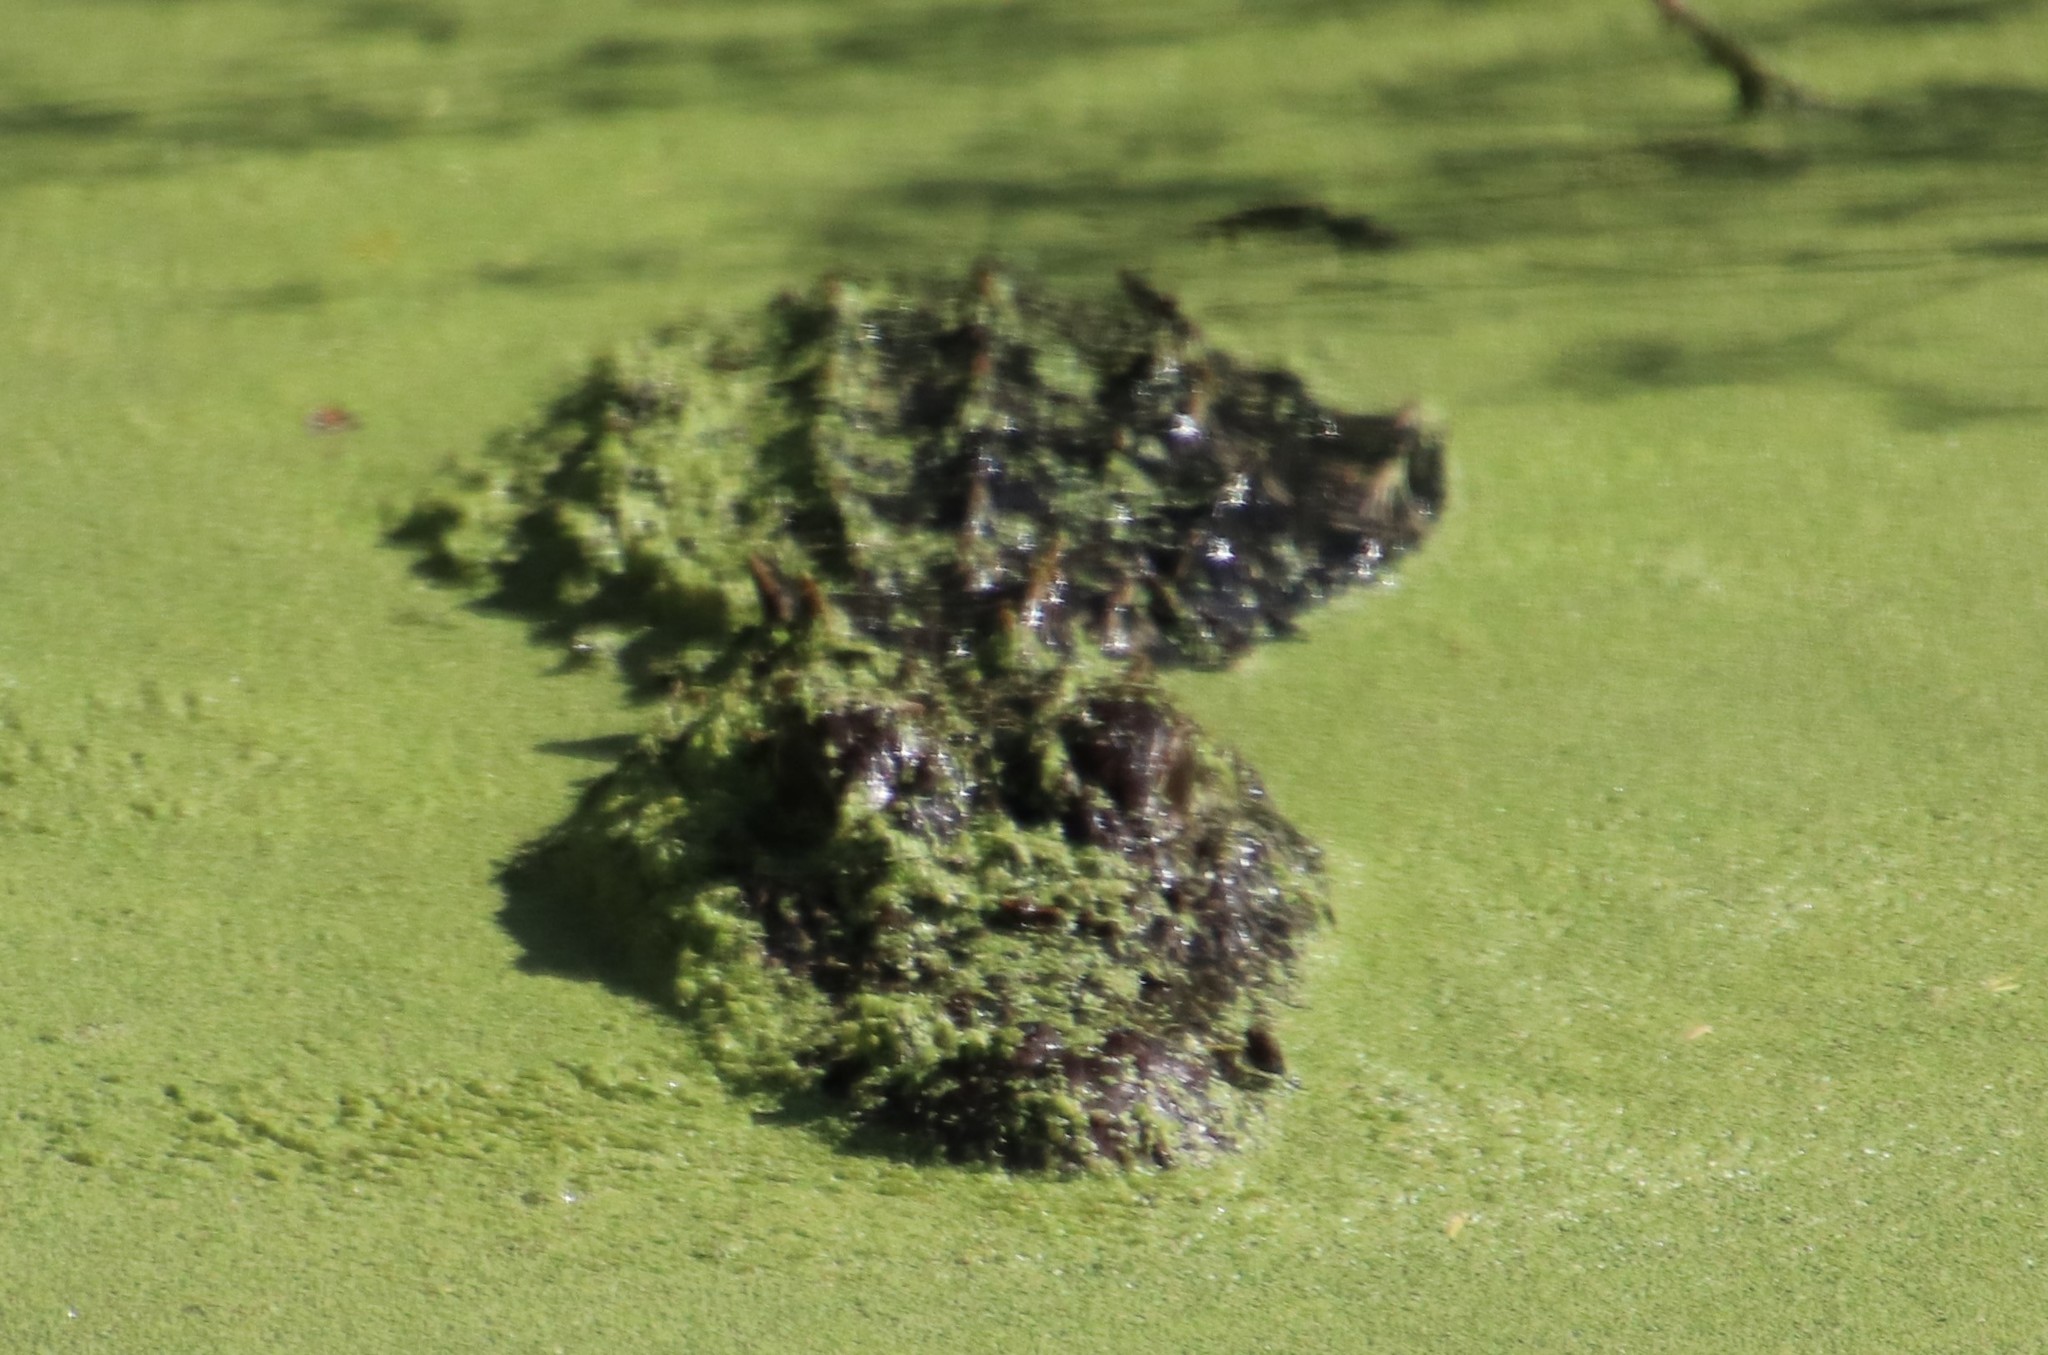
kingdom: Animalia
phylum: Chordata
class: Crocodylia
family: Alligatoridae
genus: Alligator
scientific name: Alligator mississippiensis
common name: American alligator
